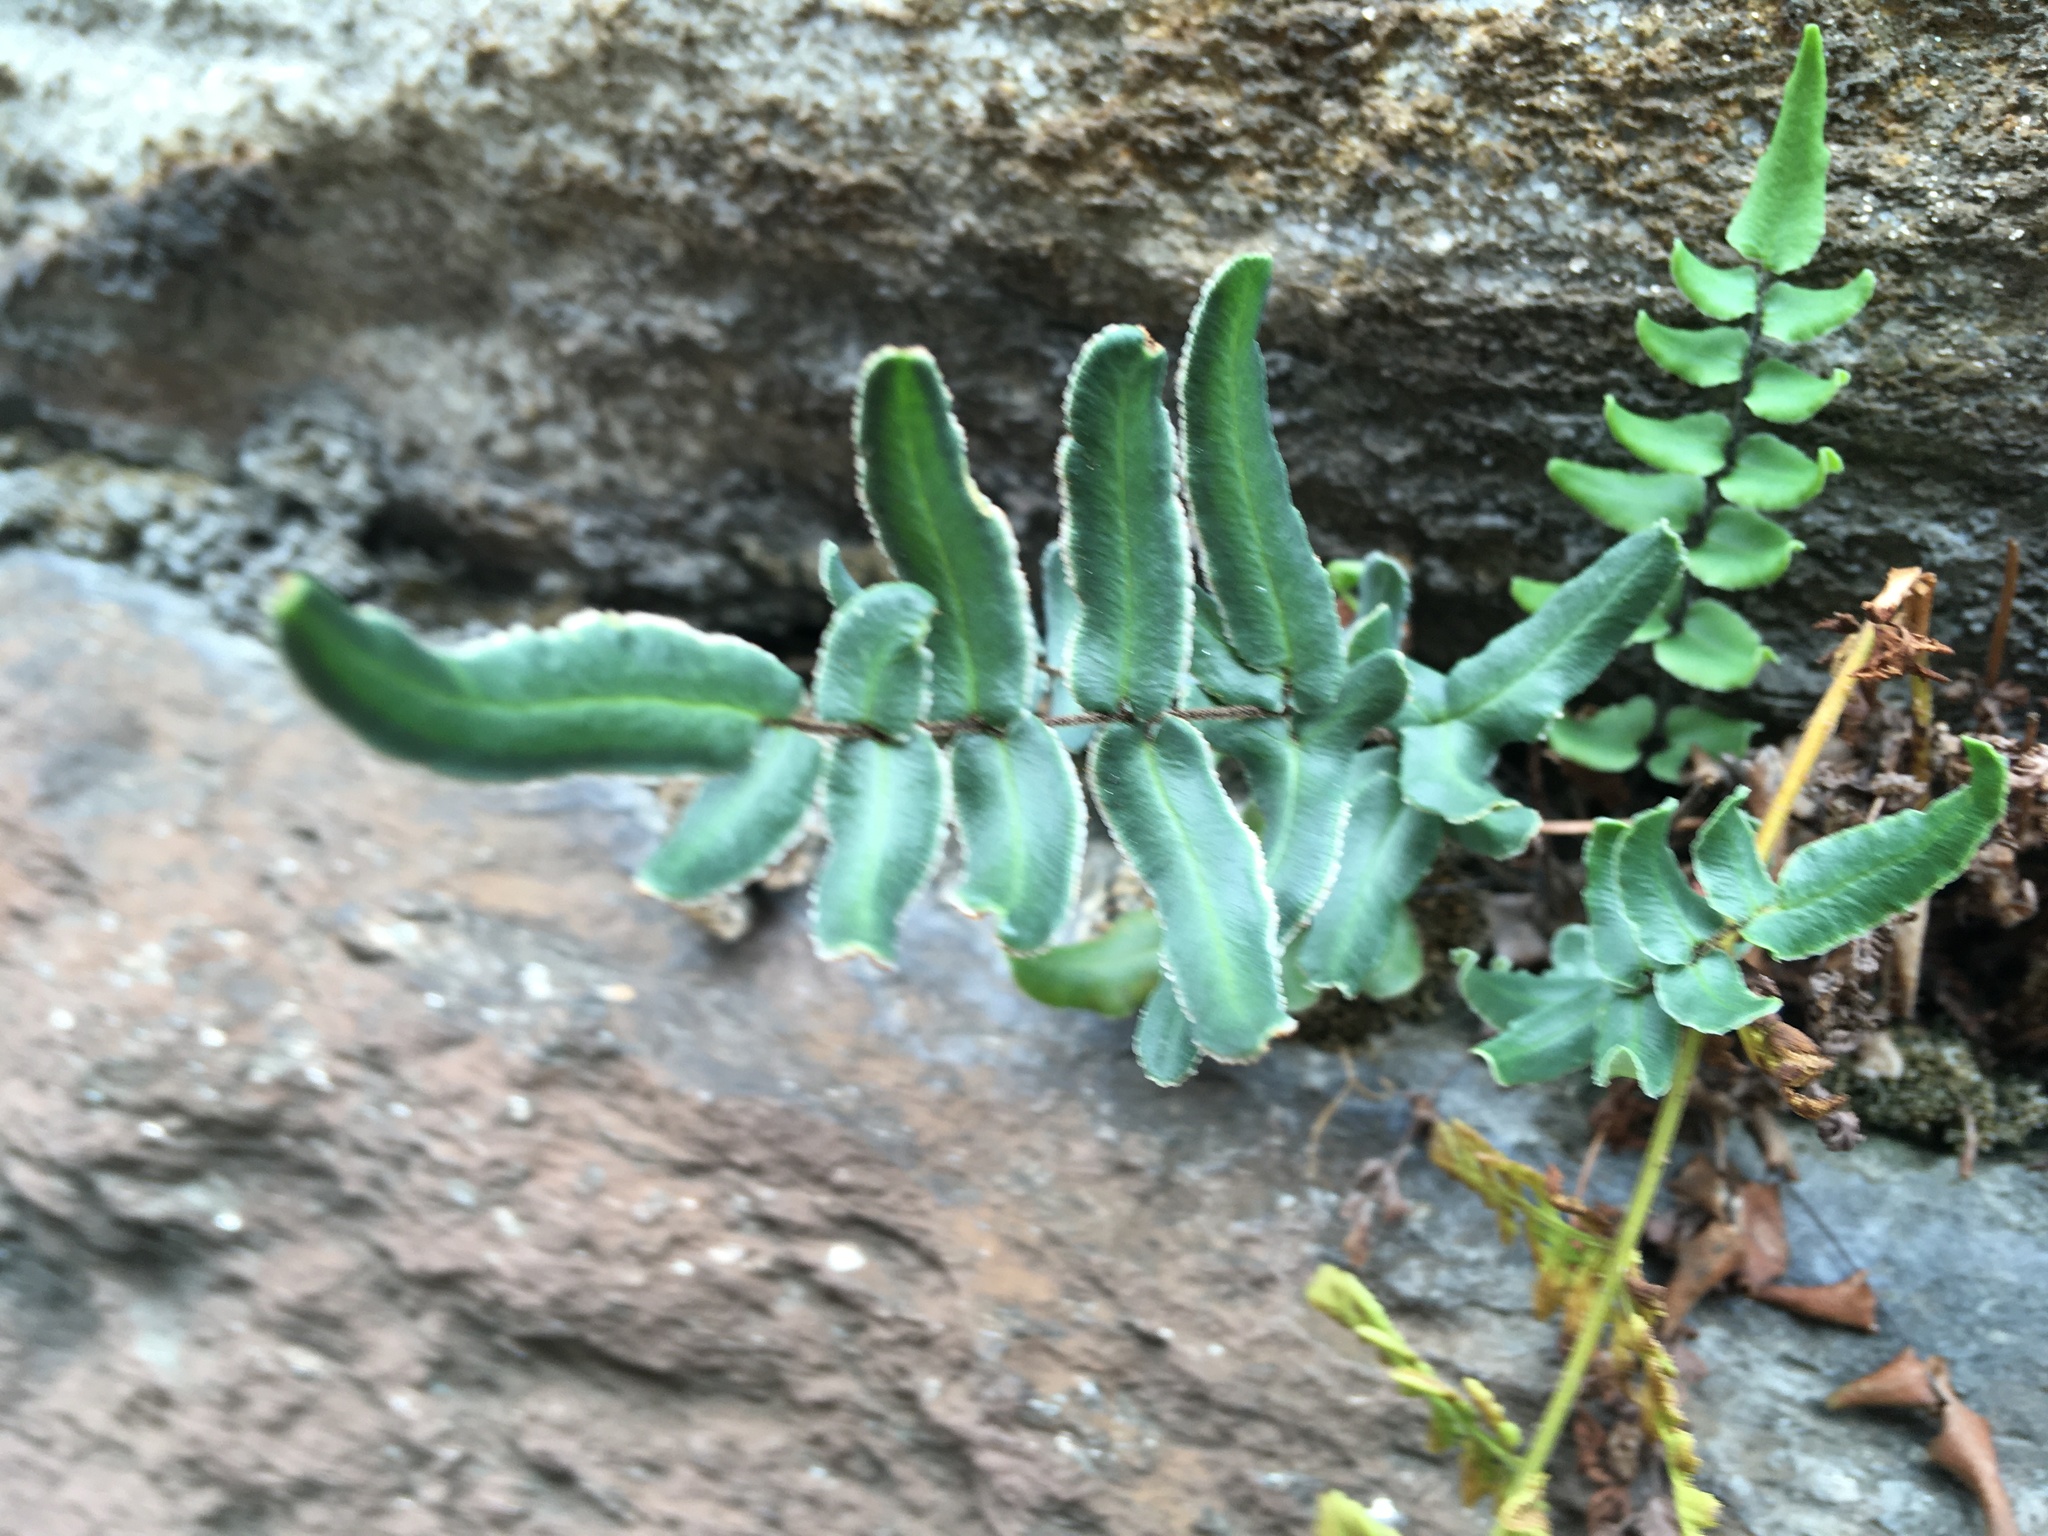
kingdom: Plantae
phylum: Tracheophyta
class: Polypodiopsida
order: Polypodiales
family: Pteridaceae
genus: Pellaea
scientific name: Pellaea atropurpurea
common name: Hairy cliffbrake
